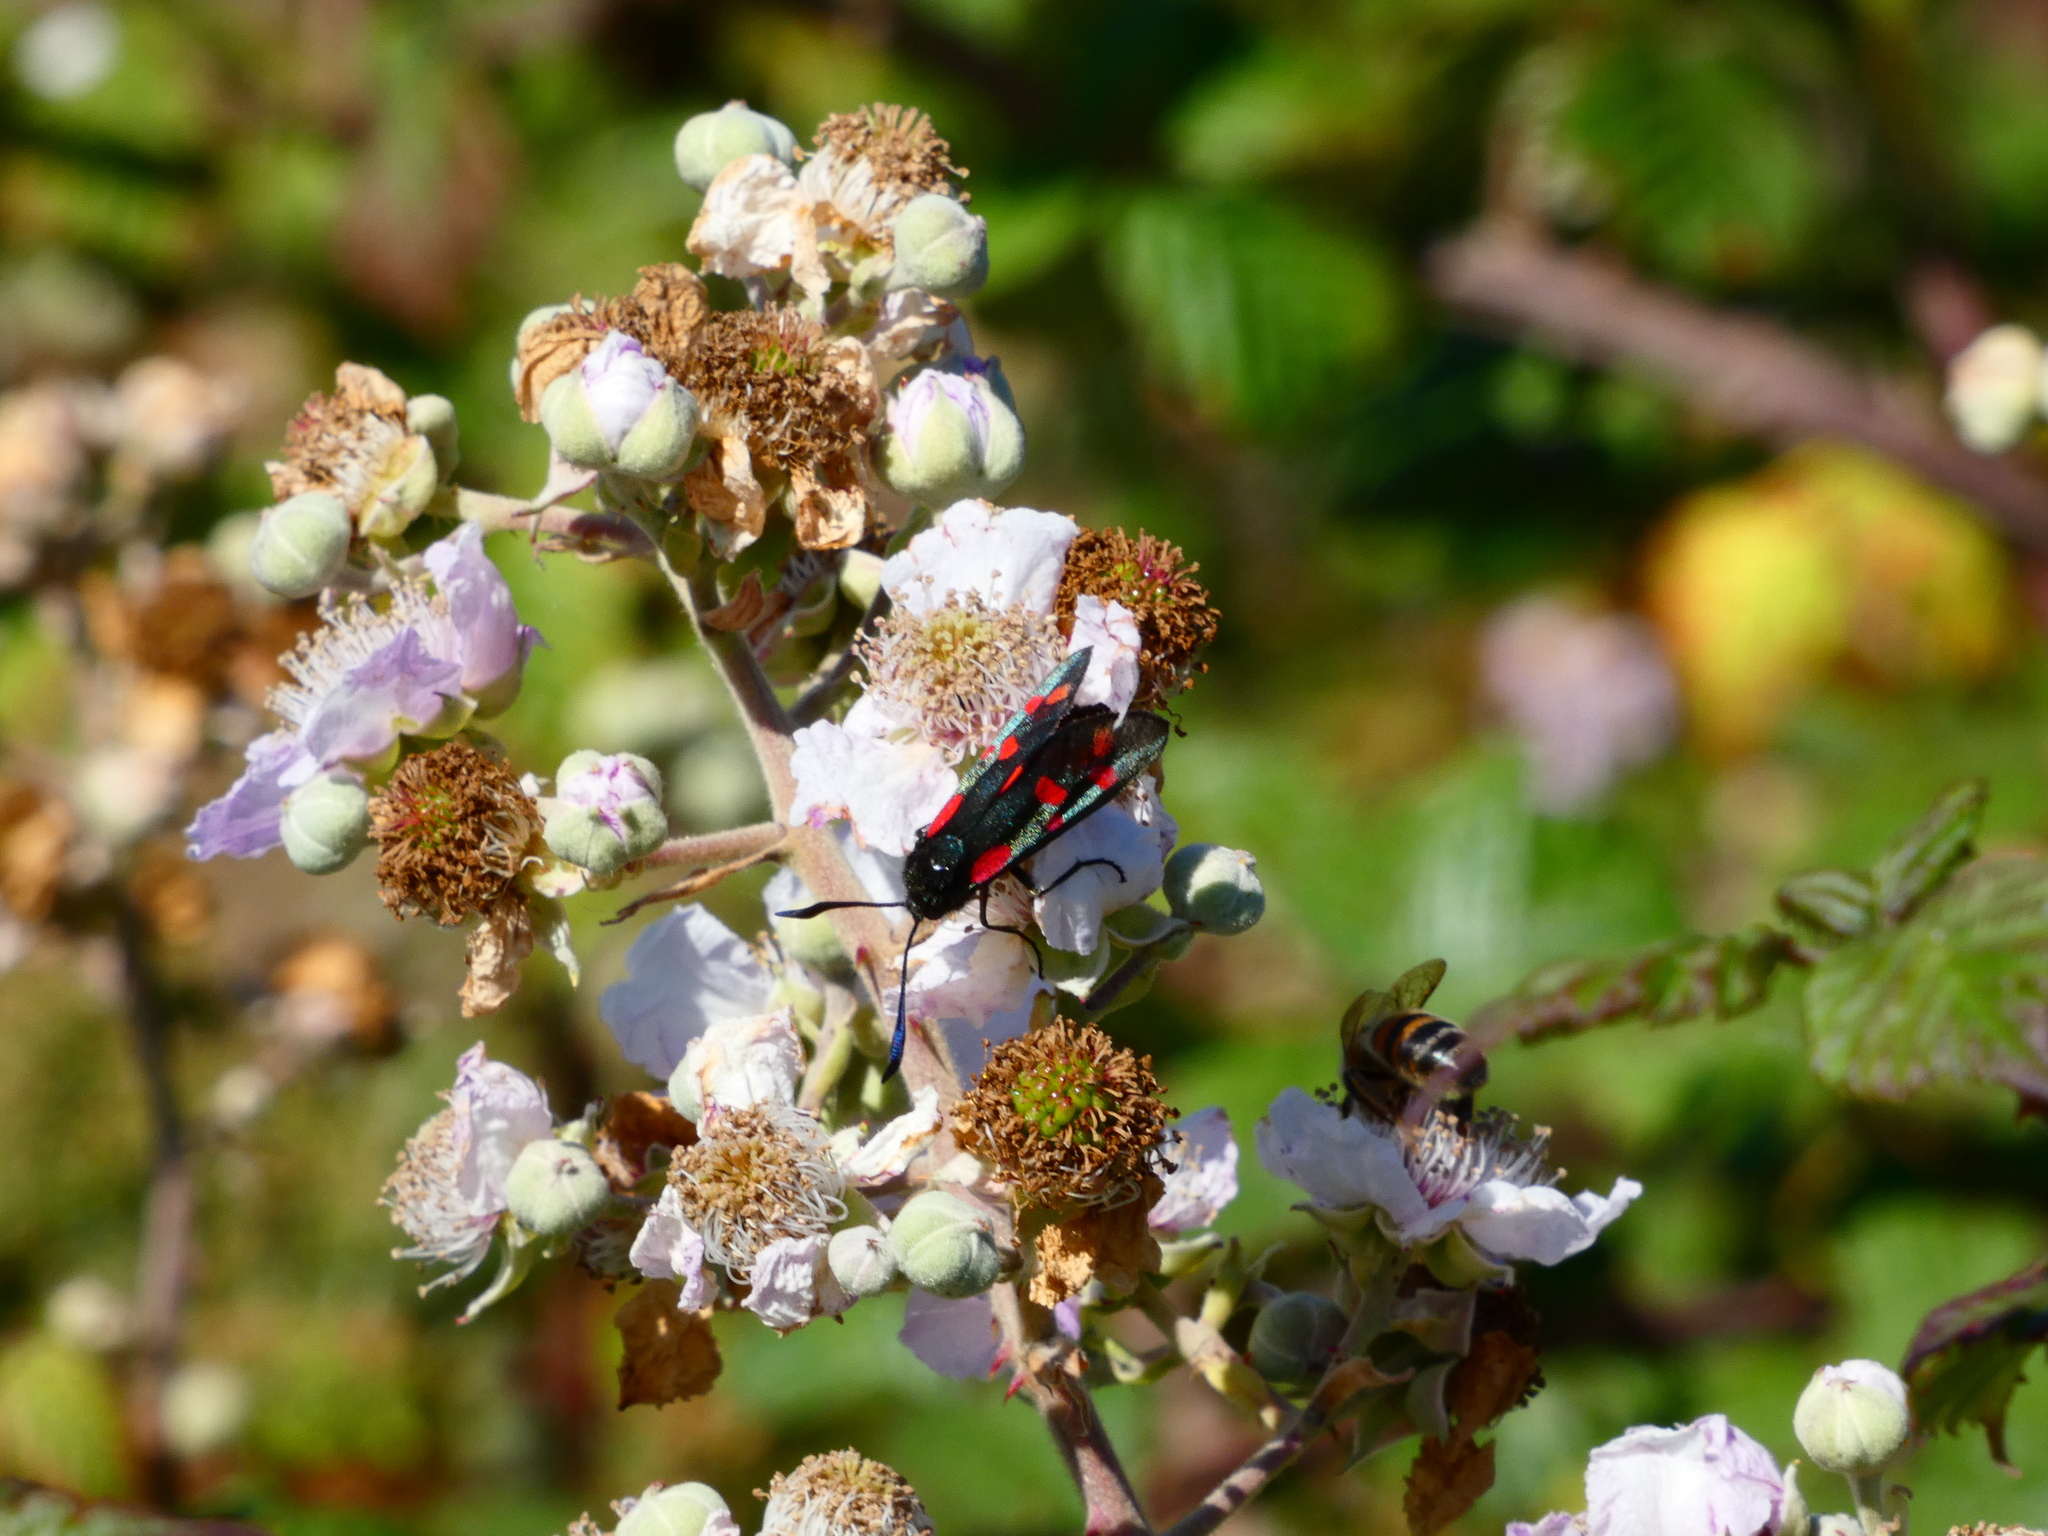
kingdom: Animalia
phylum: Arthropoda
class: Insecta
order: Lepidoptera
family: Zygaenidae
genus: Zygaena
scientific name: Zygaena filipendulae
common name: Six-spot burnet
